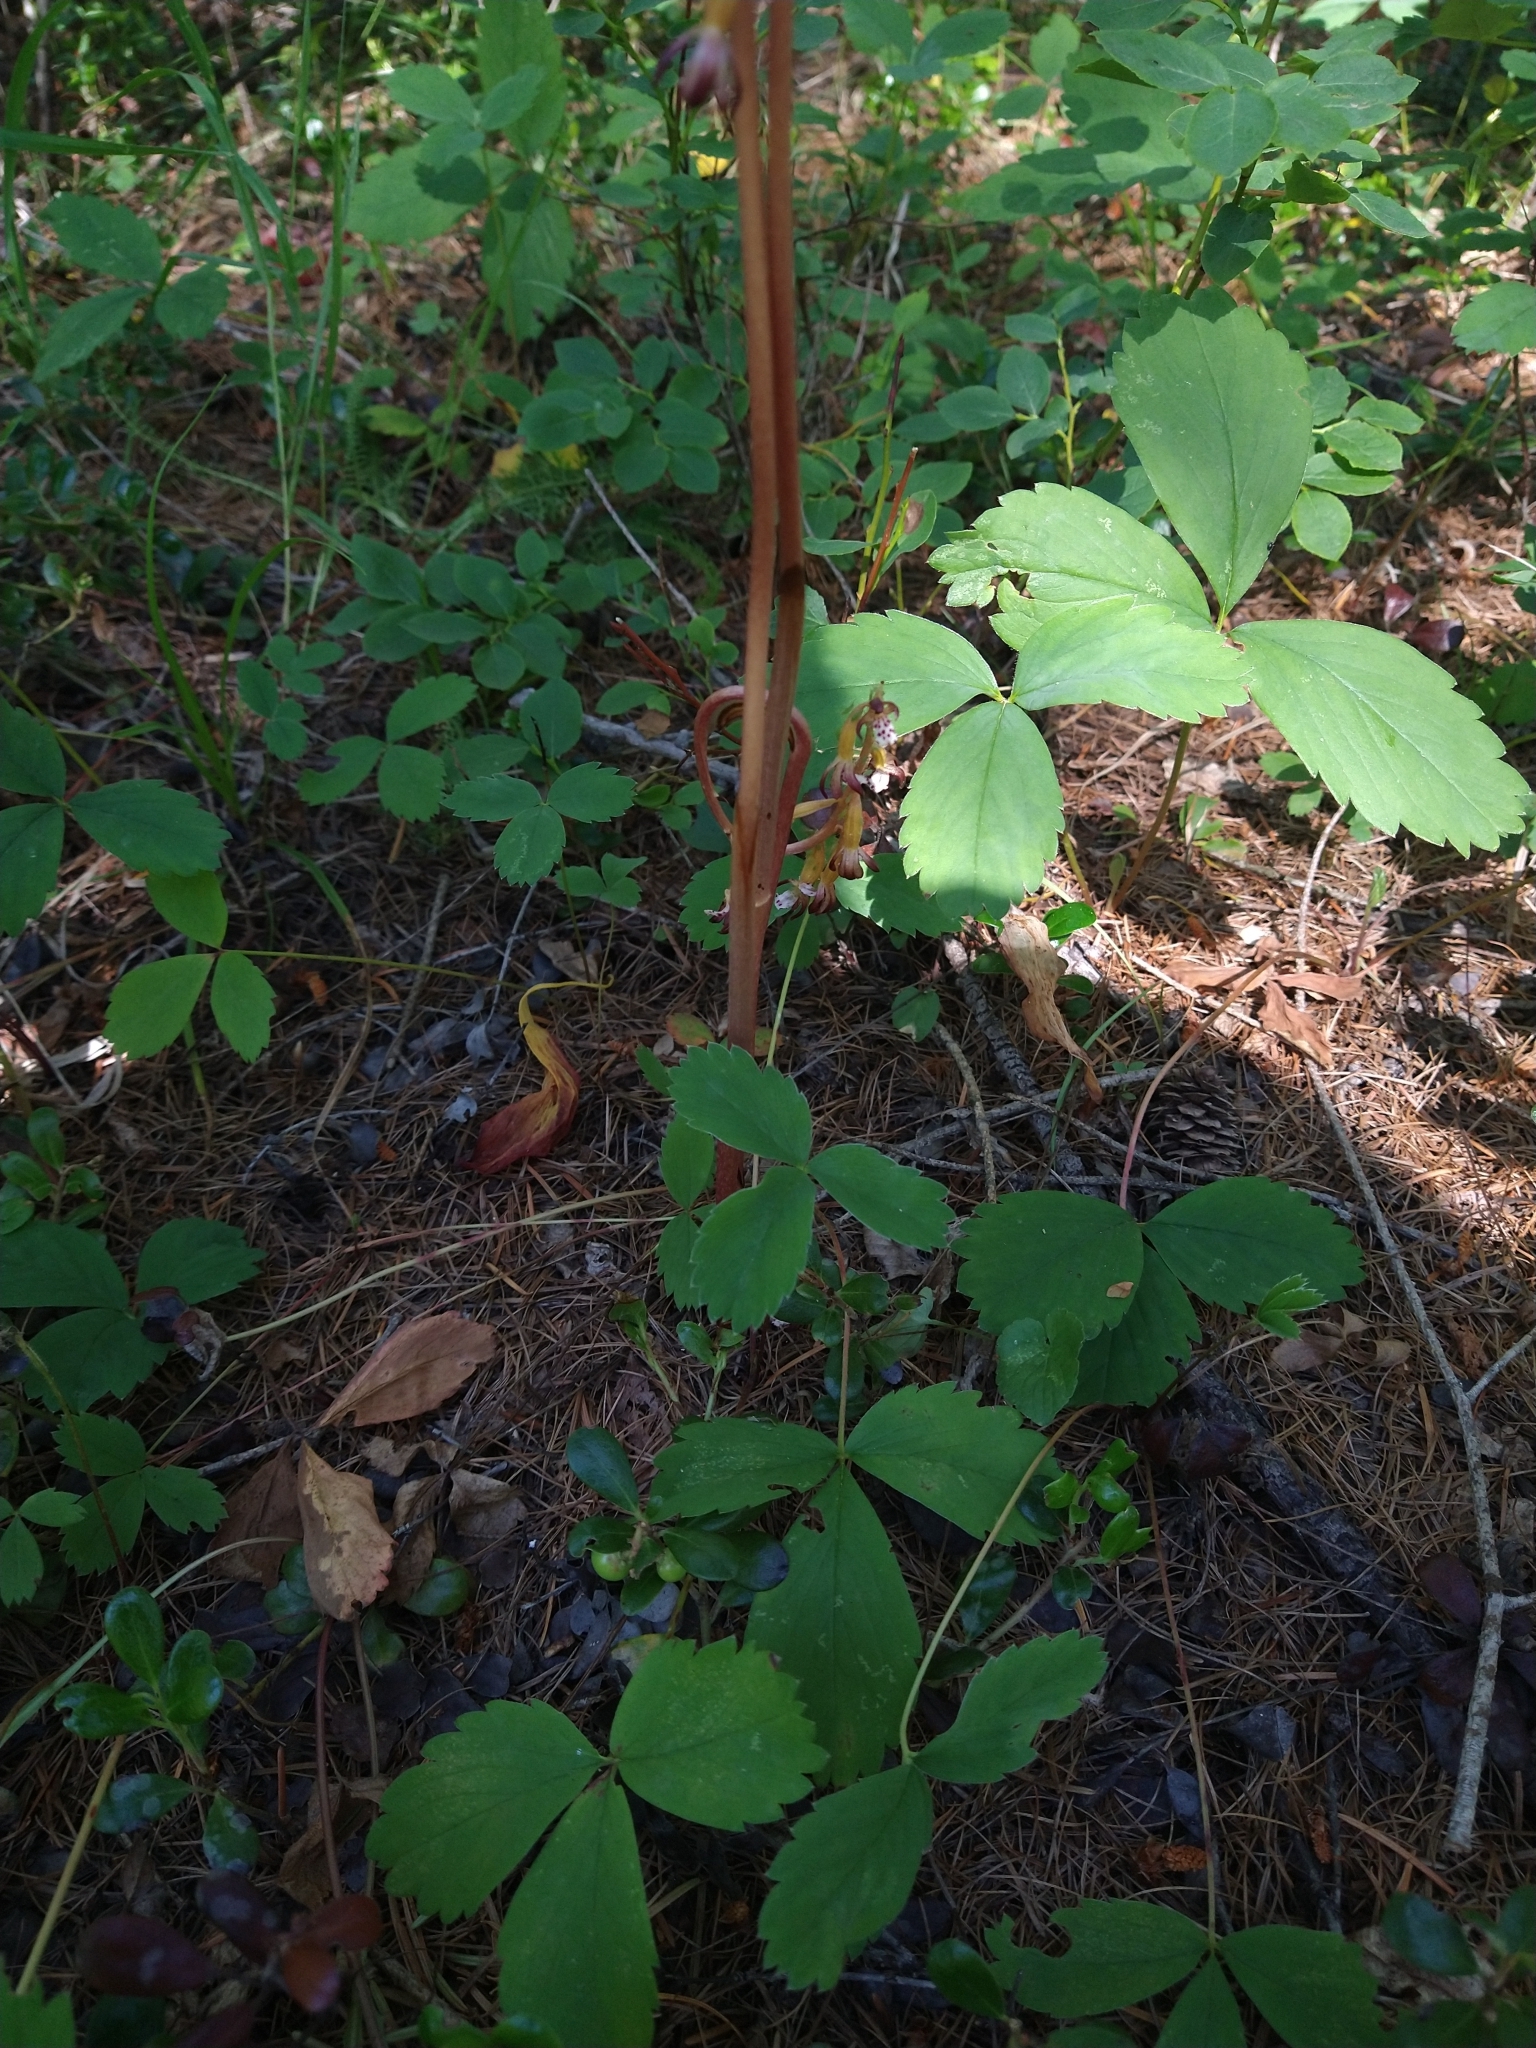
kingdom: Plantae
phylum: Tracheophyta
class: Liliopsida
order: Asparagales
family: Orchidaceae
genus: Corallorhiza
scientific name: Corallorhiza maculata
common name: Spotted coralroot
